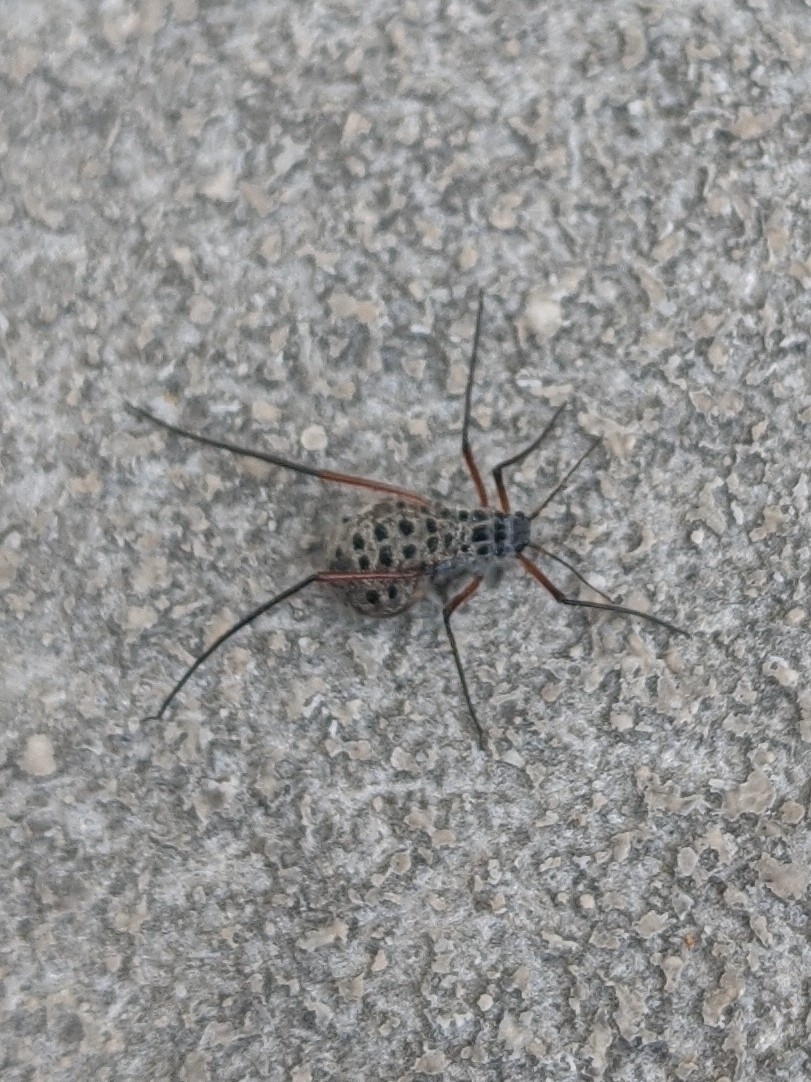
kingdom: Animalia
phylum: Arthropoda
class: Insecta
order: Hemiptera
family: Aphididae
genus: Tuberolachnus
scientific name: Tuberolachnus salignus
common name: Giant willow aphid
